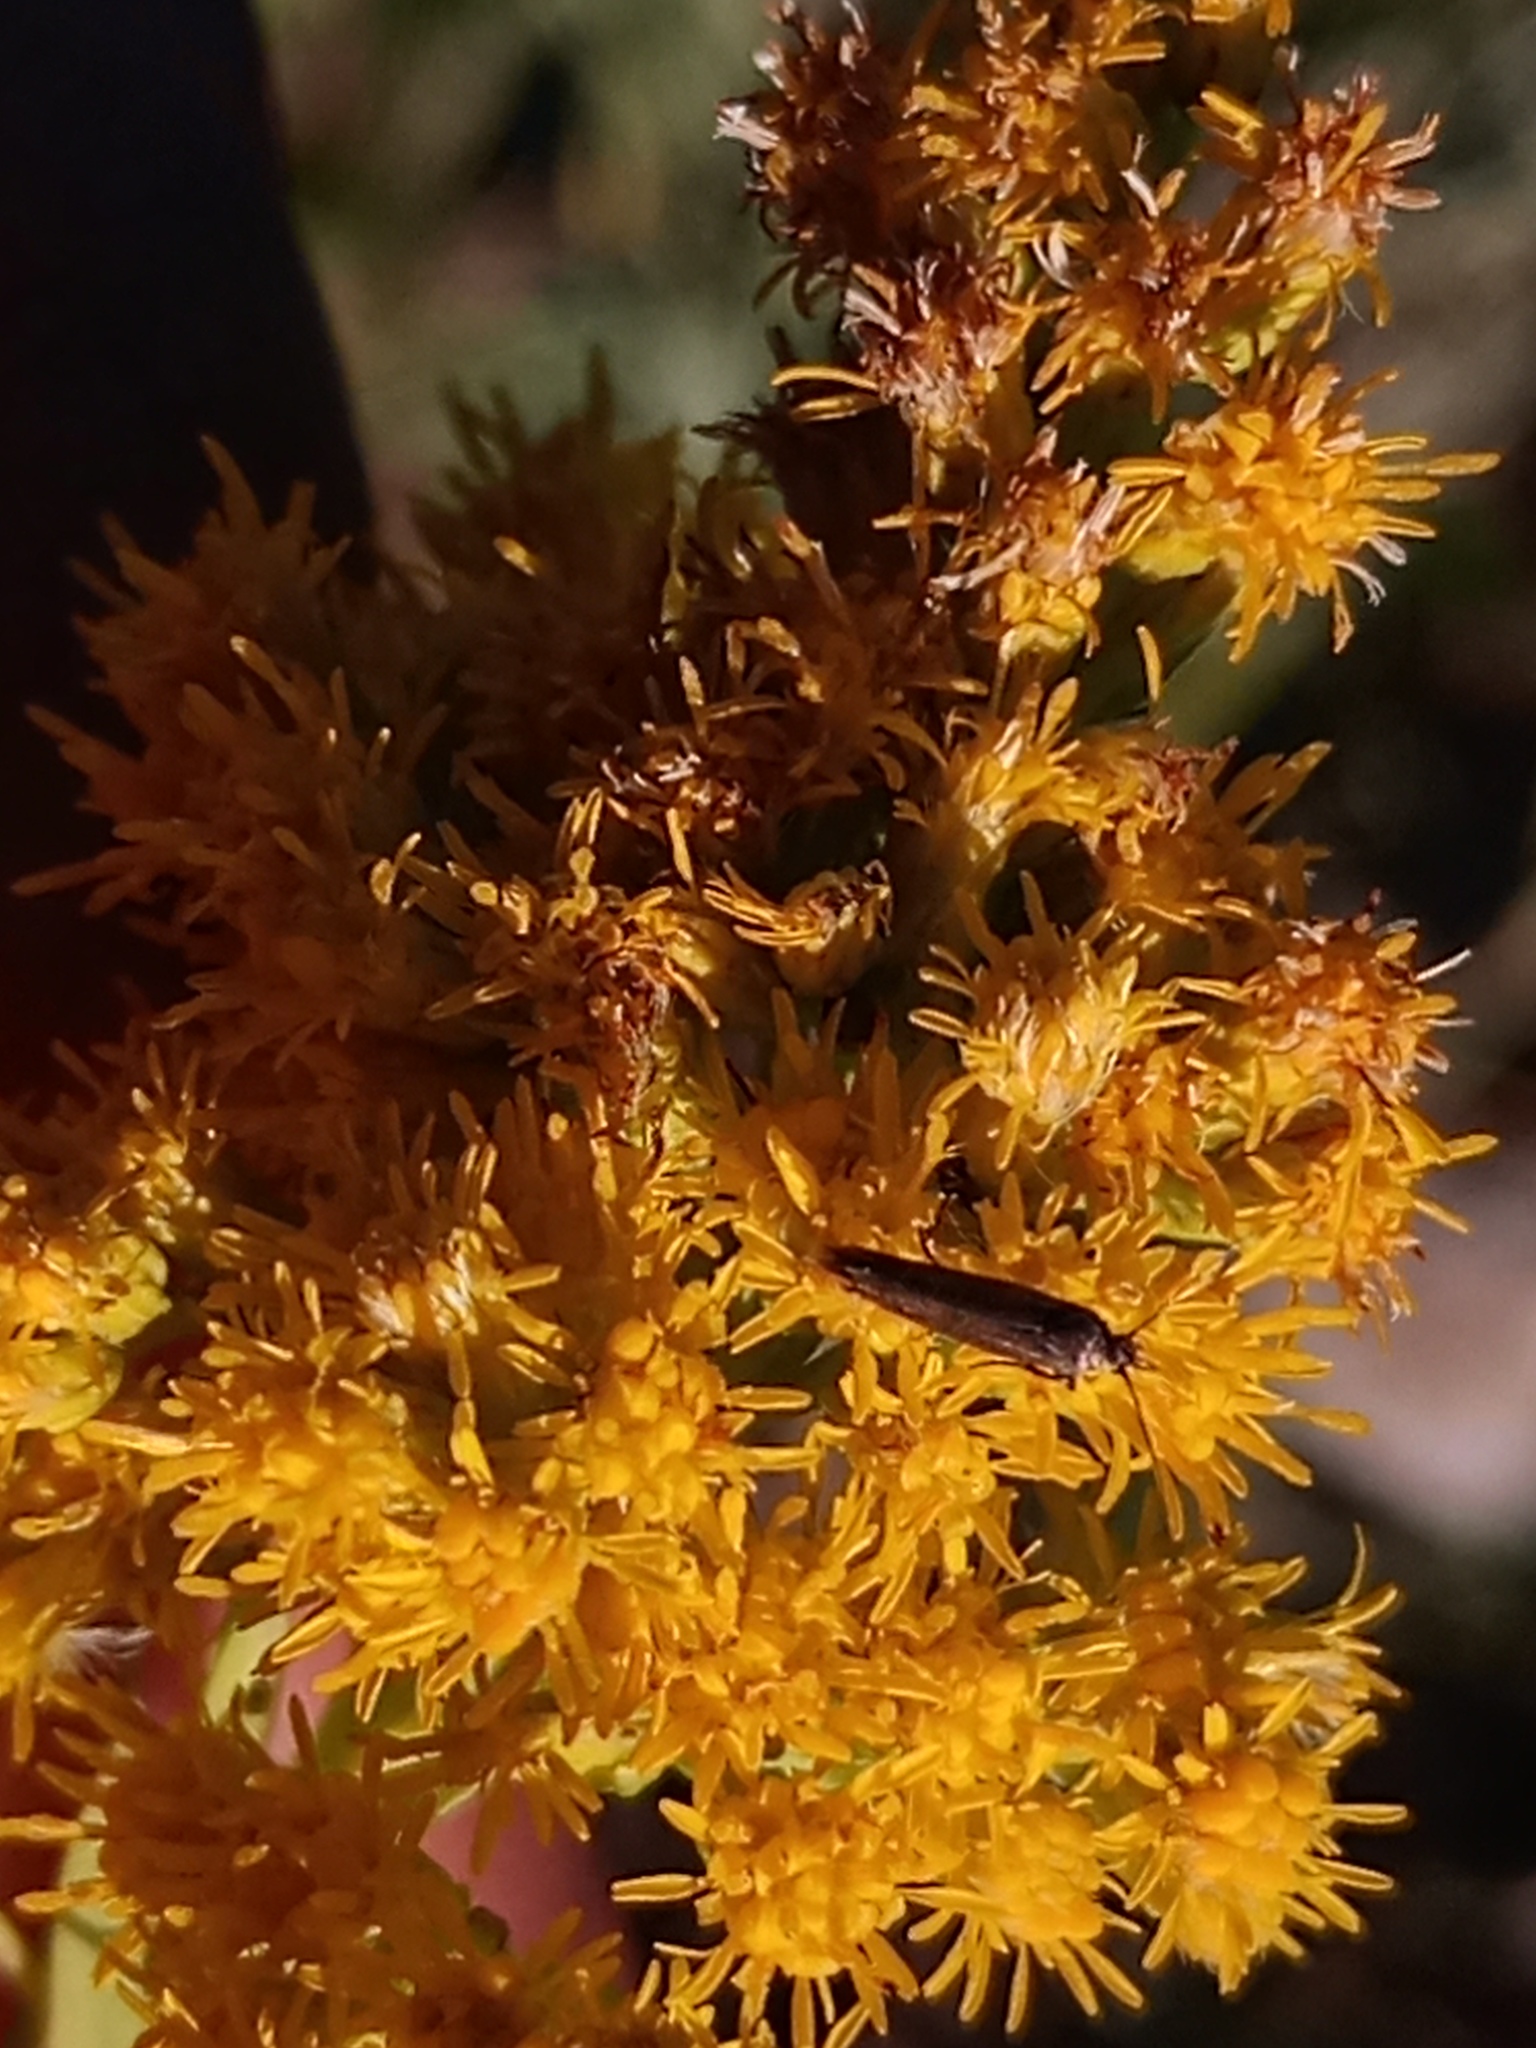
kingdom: Plantae
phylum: Tracheophyta
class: Magnoliopsida
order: Asterales
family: Asteraceae
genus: Solidago
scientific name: Solidago chilensis
